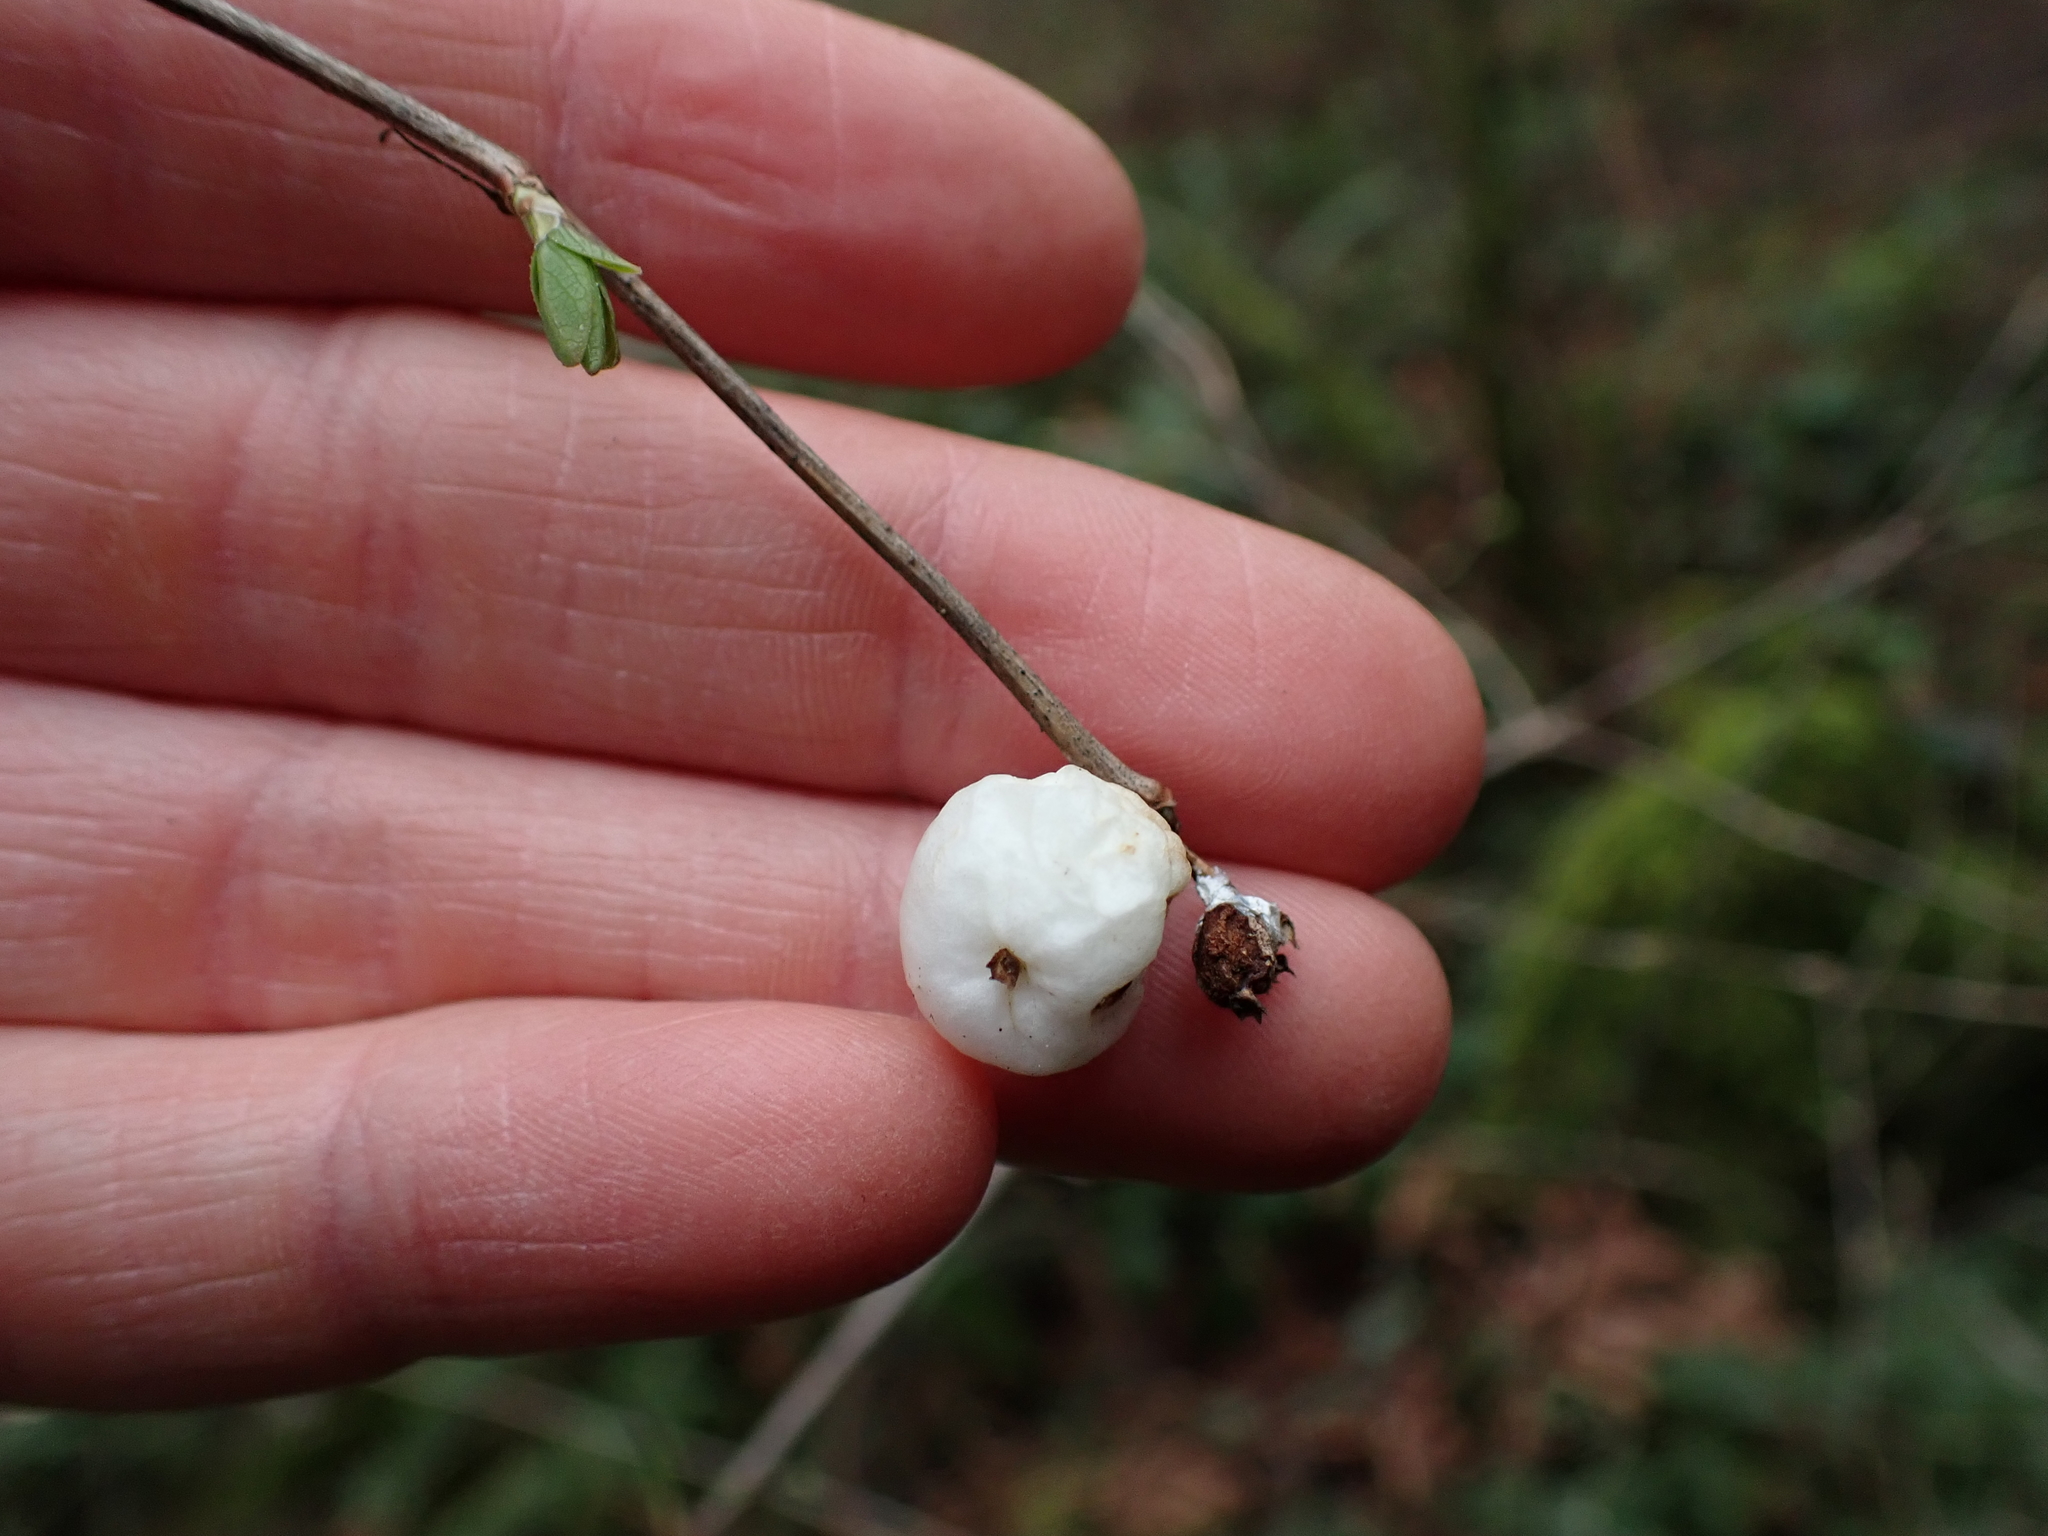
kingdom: Plantae
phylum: Tracheophyta
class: Magnoliopsida
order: Dipsacales
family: Caprifoliaceae
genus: Symphoricarpos
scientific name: Symphoricarpos albus
